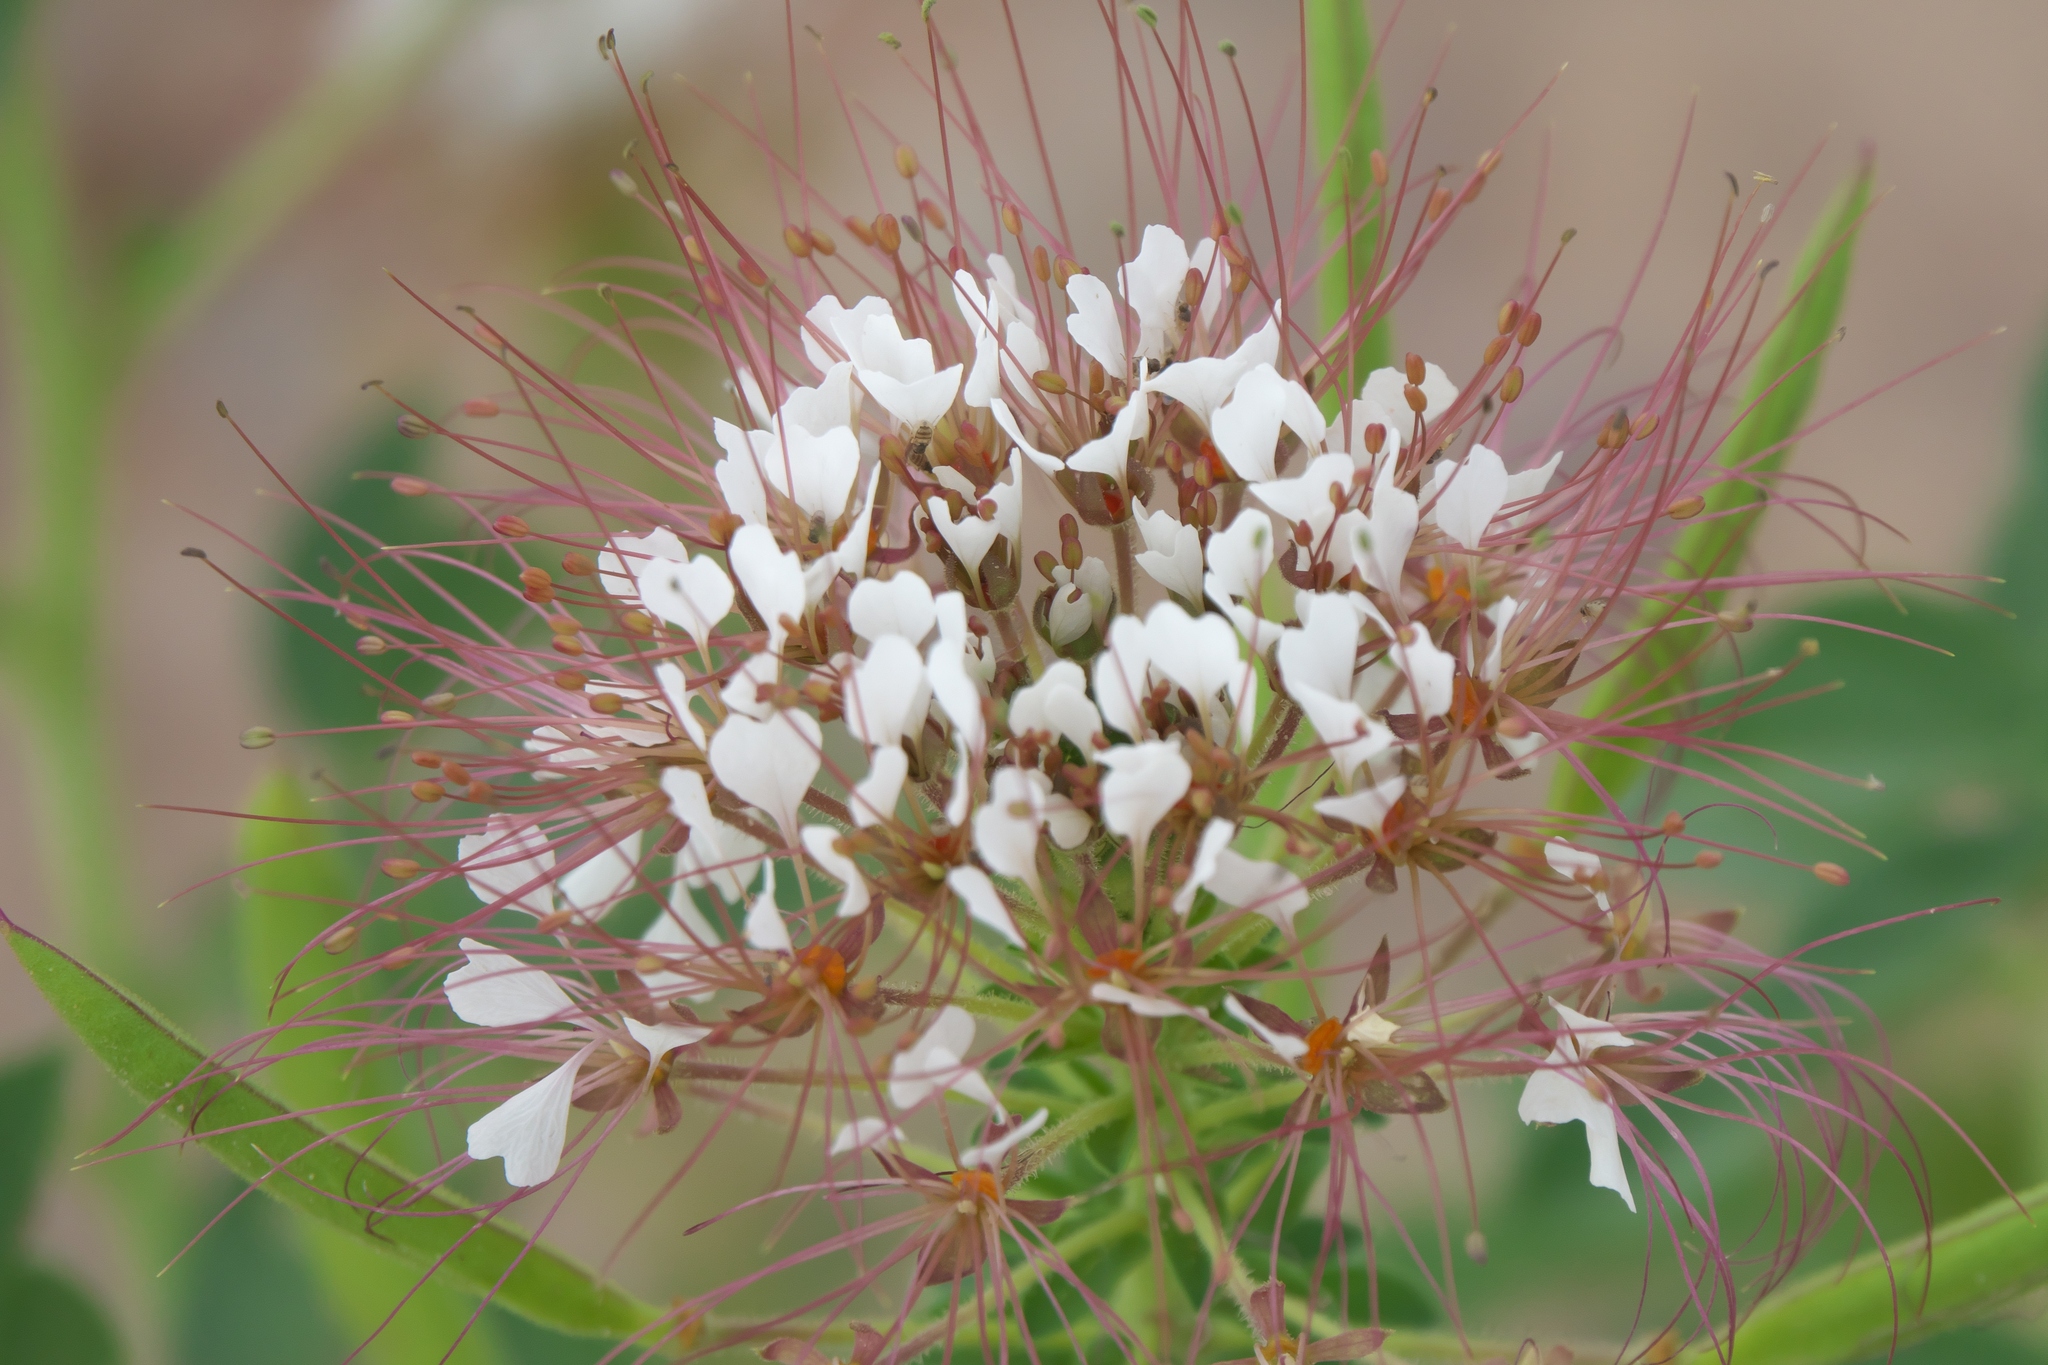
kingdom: Plantae
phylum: Tracheophyta
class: Magnoliopsida
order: Brassicales
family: Cleomaceae
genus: Polanisia
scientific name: Polanisia dodecandra
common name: Clammyweed
